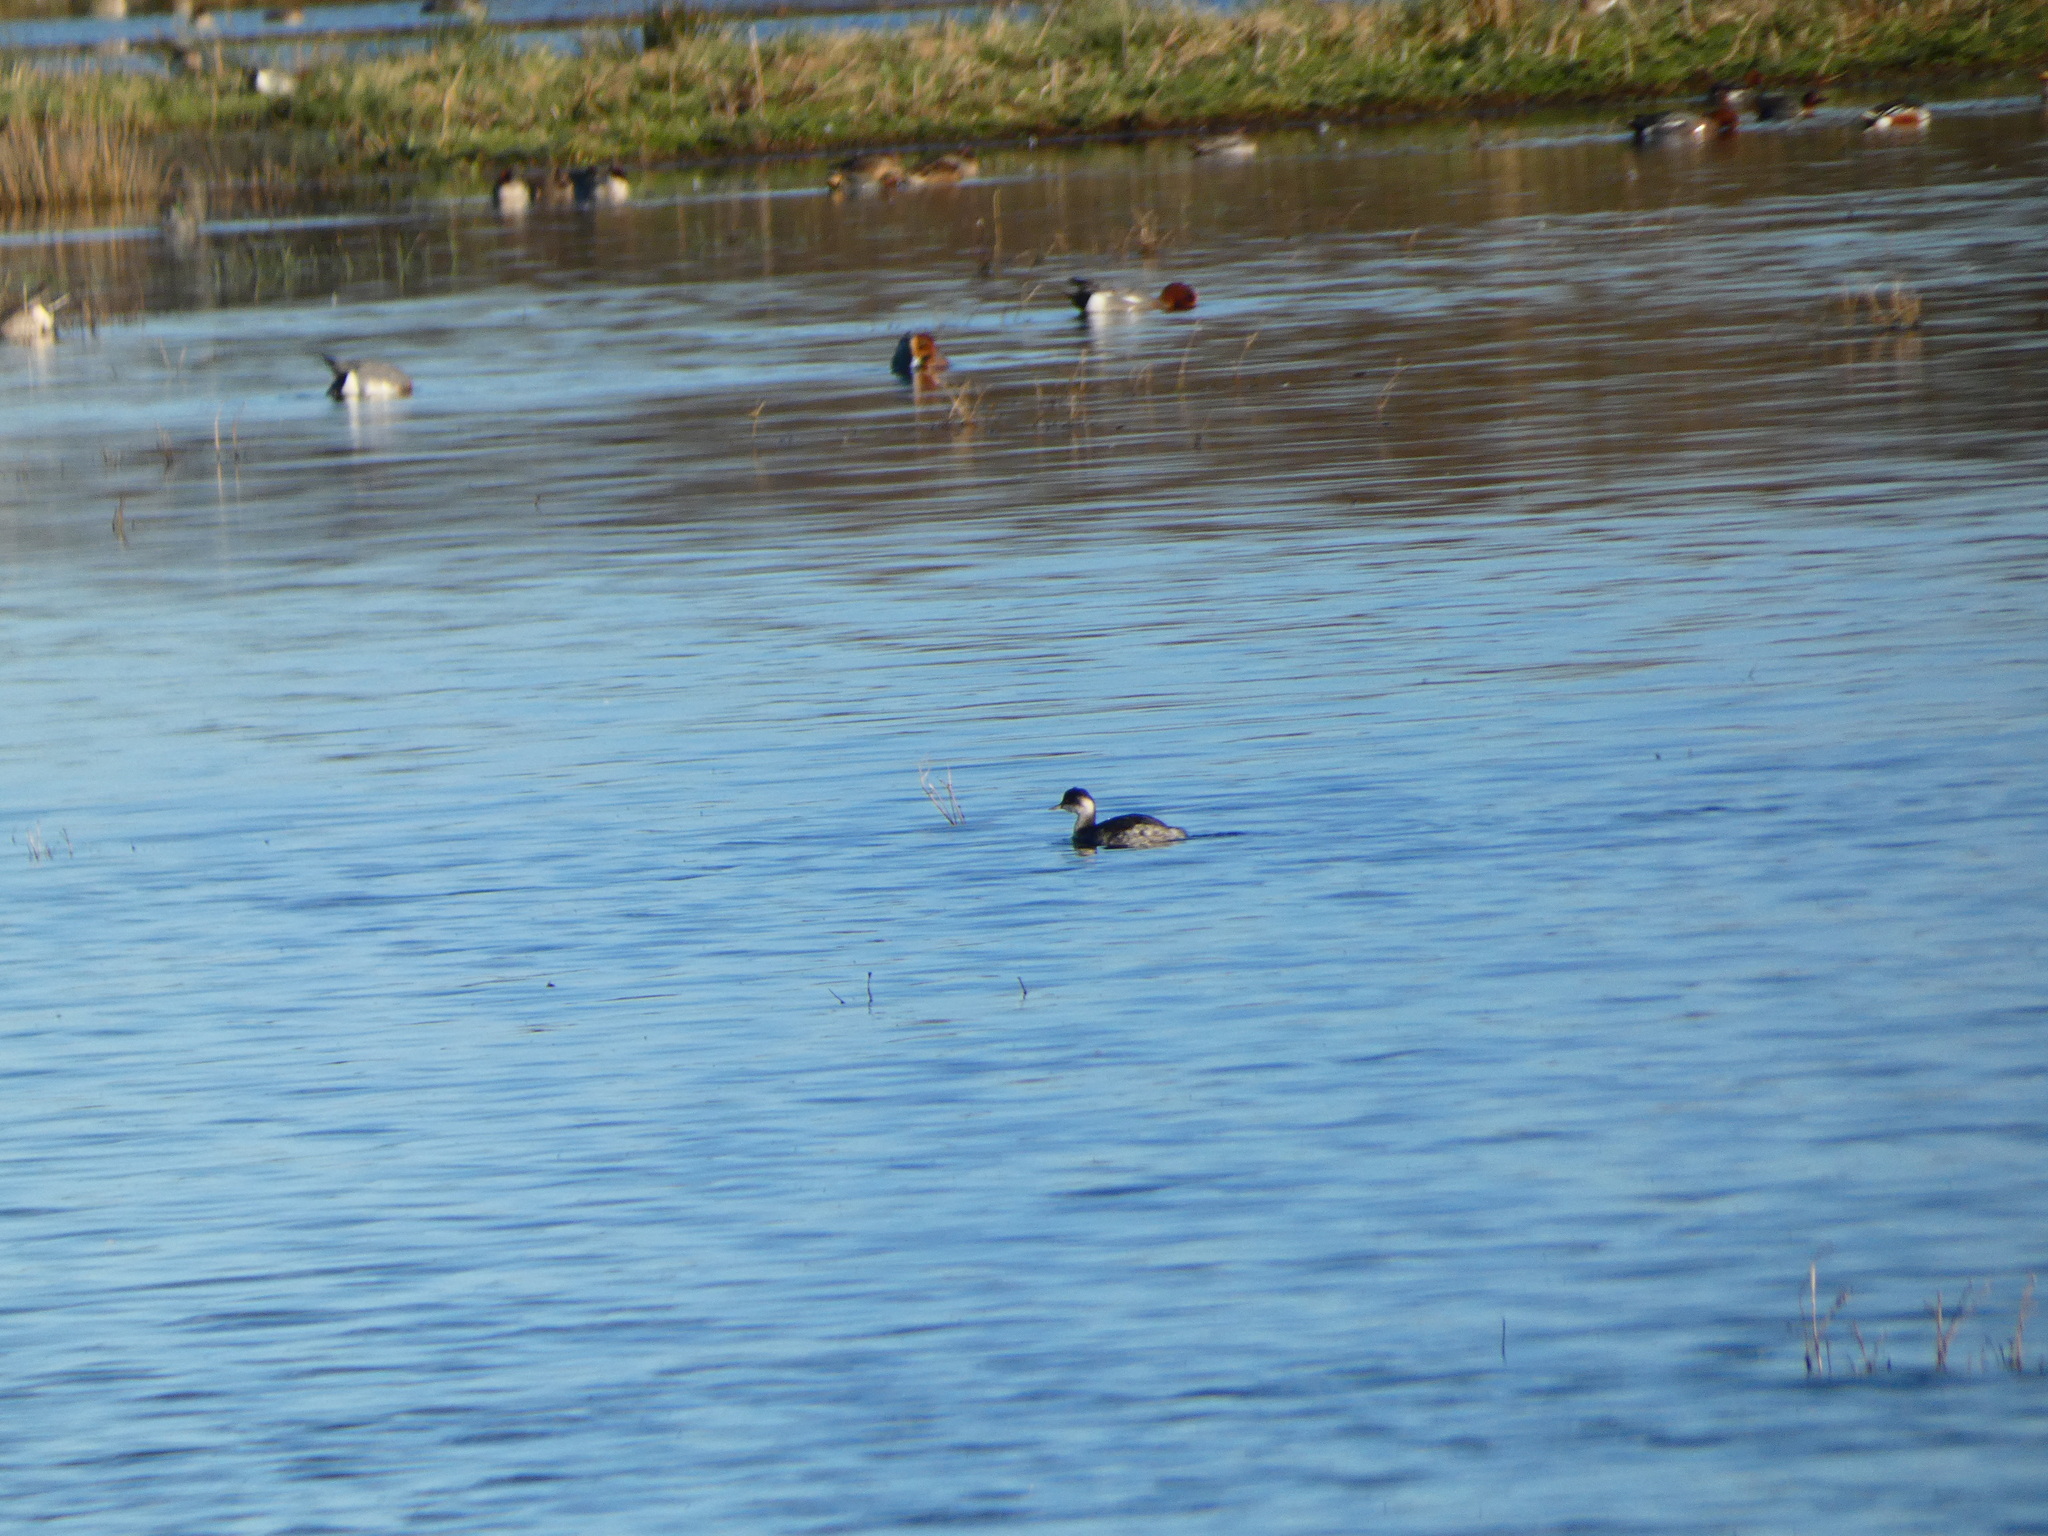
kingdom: Animalia
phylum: Chordata
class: Aves
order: Podicipediformes
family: Podicipedidae
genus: Podiceps
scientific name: Podiceps nigricollis
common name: Black-necked grebe
